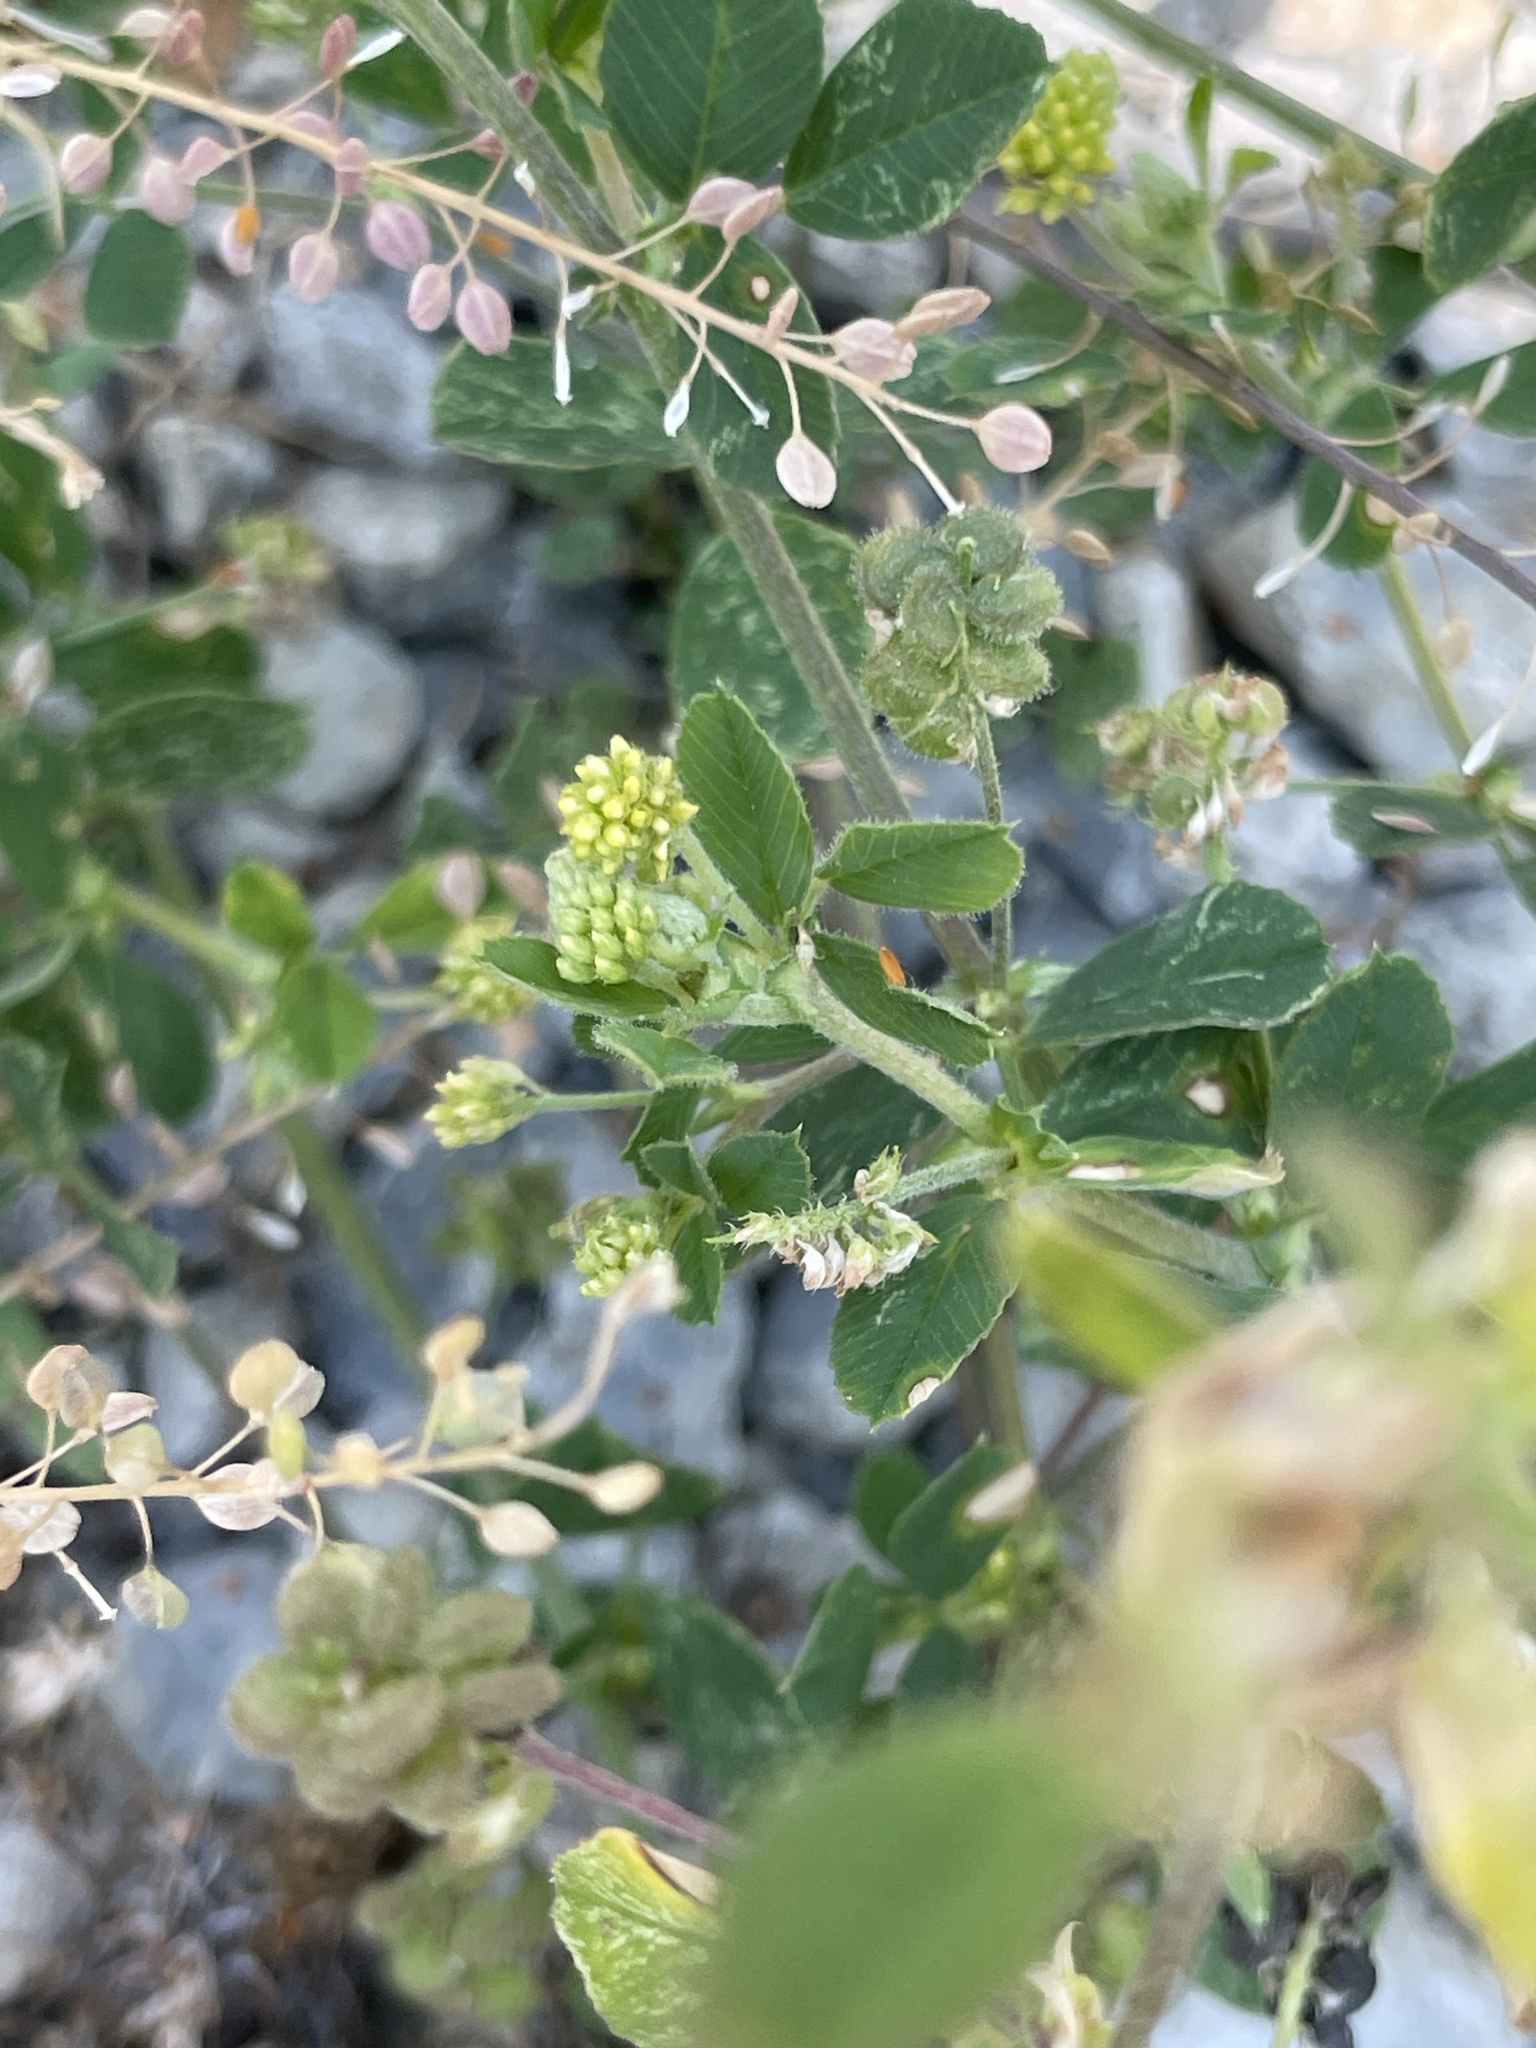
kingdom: Plantae
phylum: Tracheophyta
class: Magnoliopsida
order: Fabales
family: Fabaceae
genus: Medicago
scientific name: Medicago lupulina
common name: Black medick
